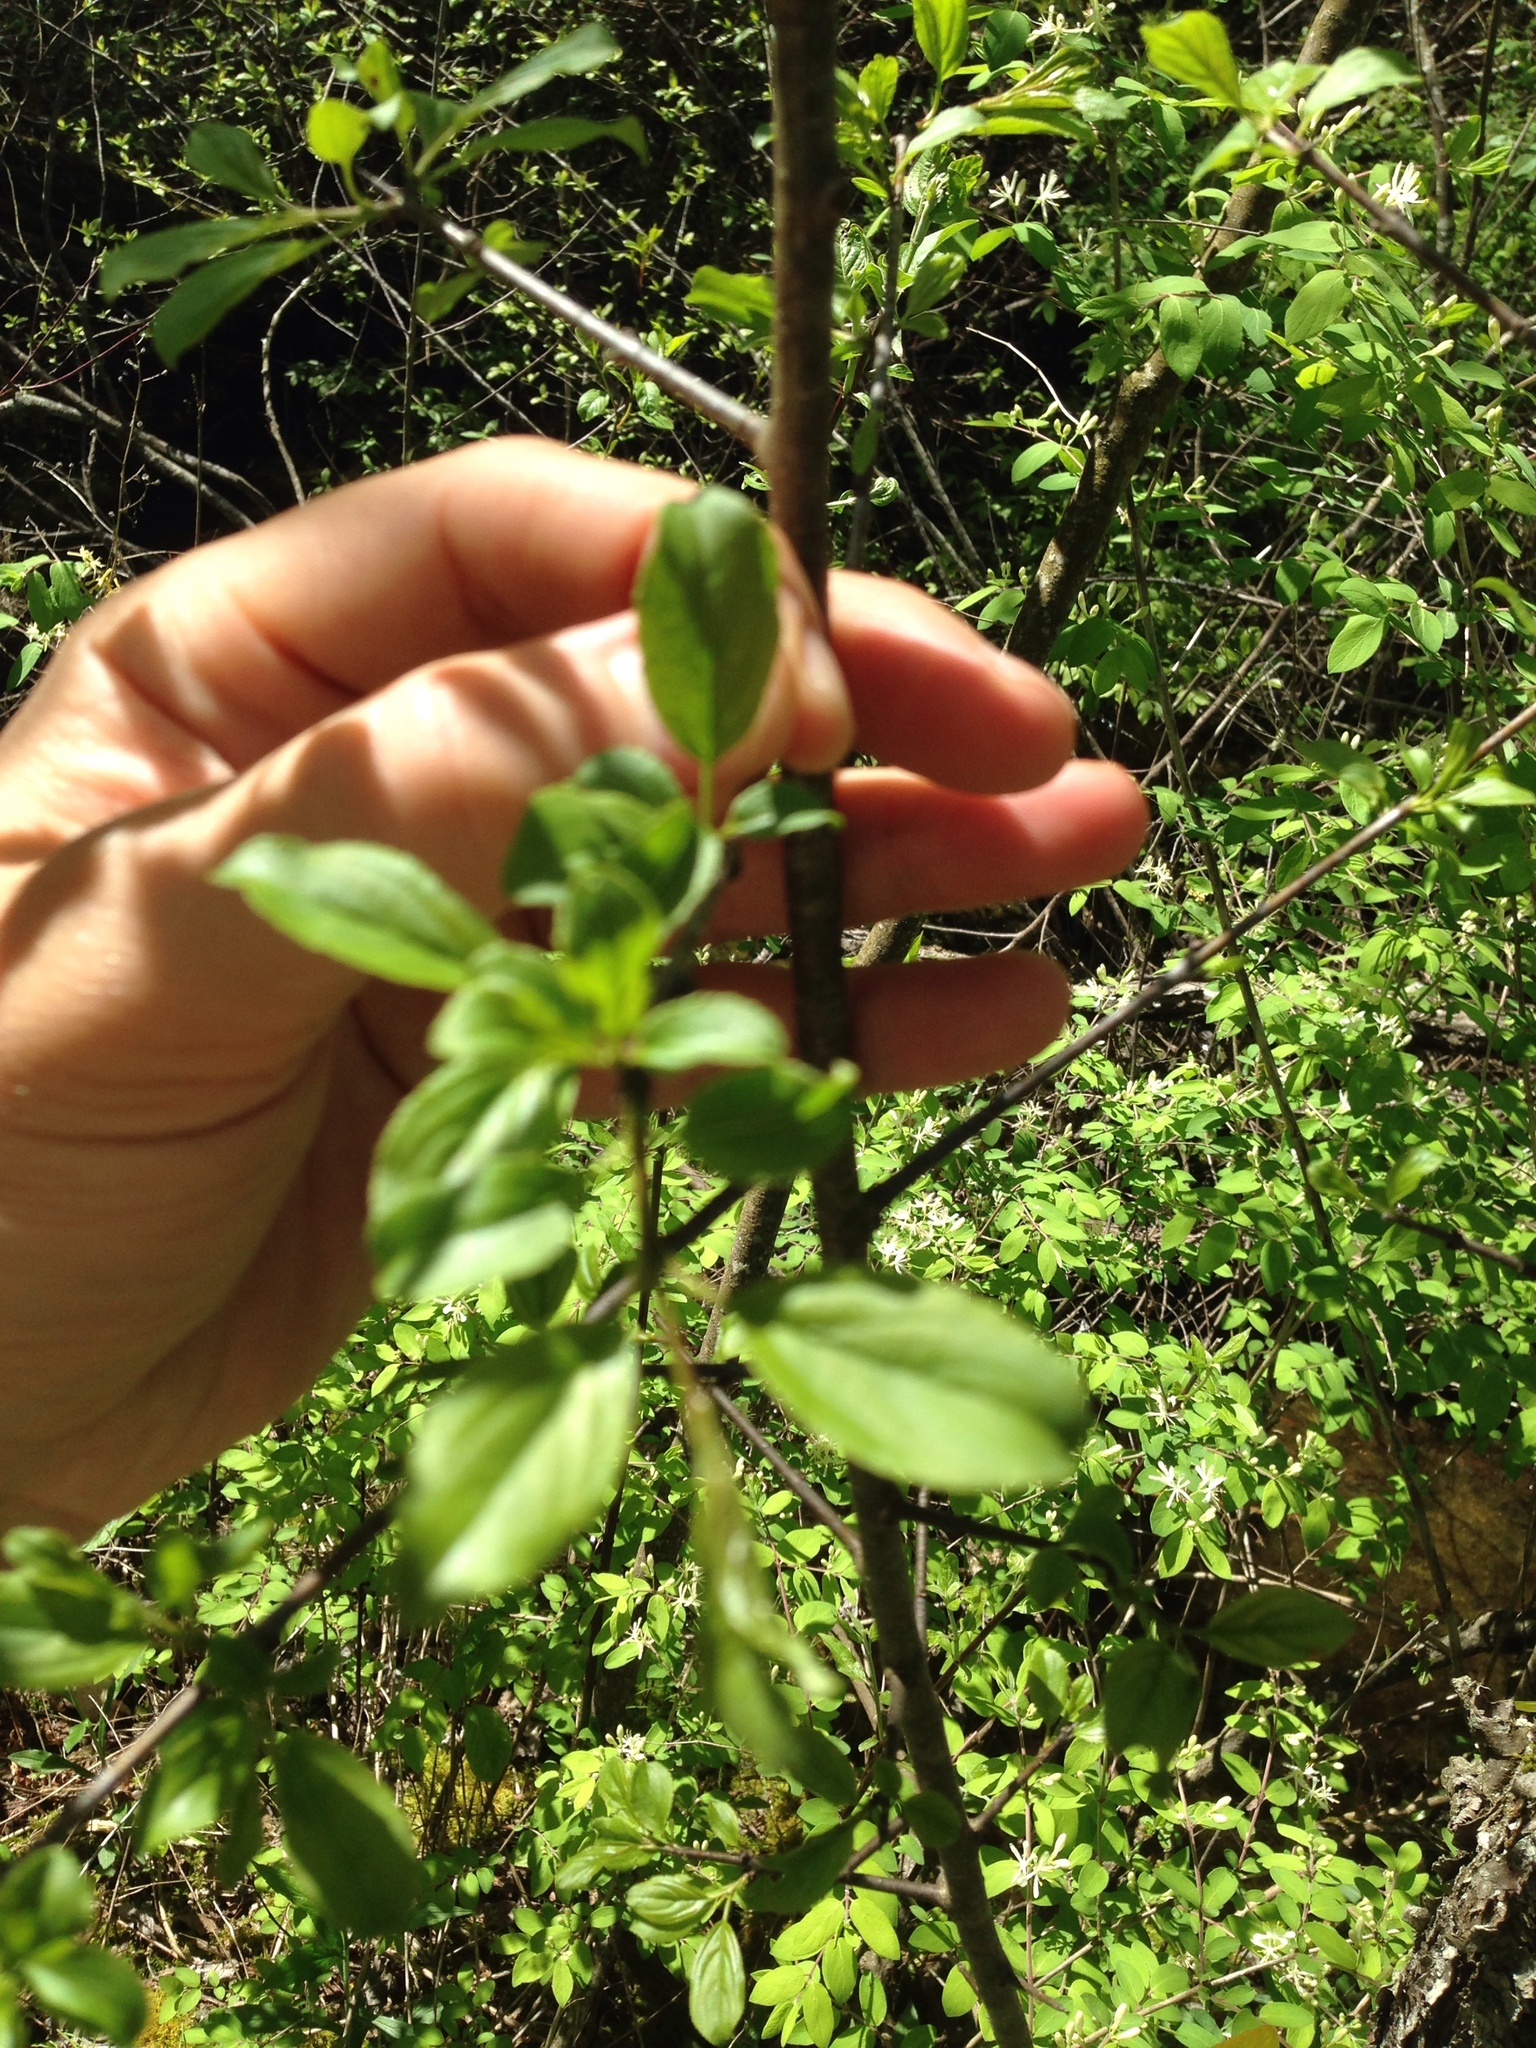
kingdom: Plantae
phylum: Tracheophyta
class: Magnoliopsida
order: Rosales
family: Rhamnaceae
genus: Rhamnus
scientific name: Rhamnus cathartica
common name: Common buckthorn
